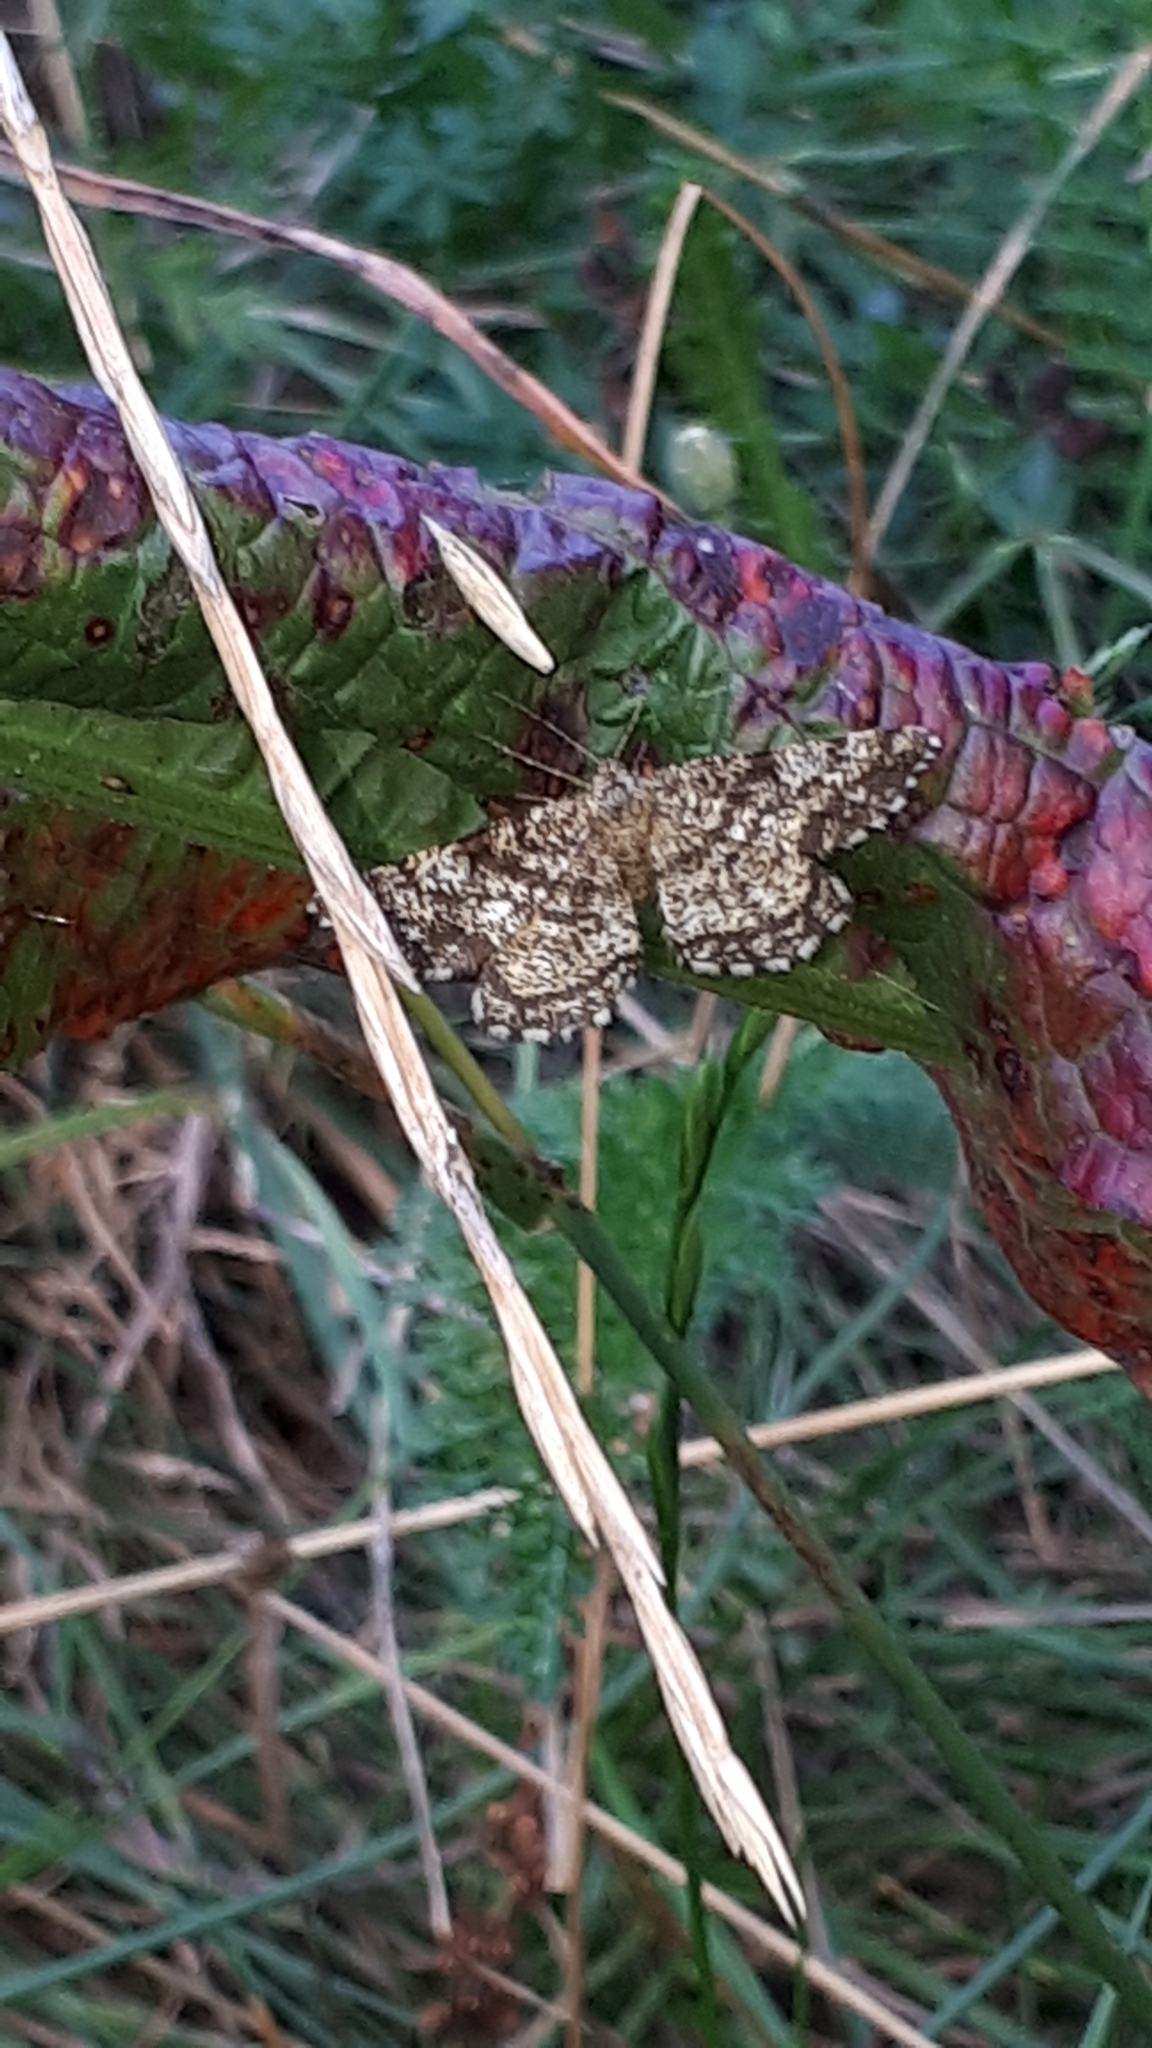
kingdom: Animalia
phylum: Arthropoda
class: Insecta
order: Lepidoptera
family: Geometridae
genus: Ematurga
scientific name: Ematurga atomaria
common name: Common heath
